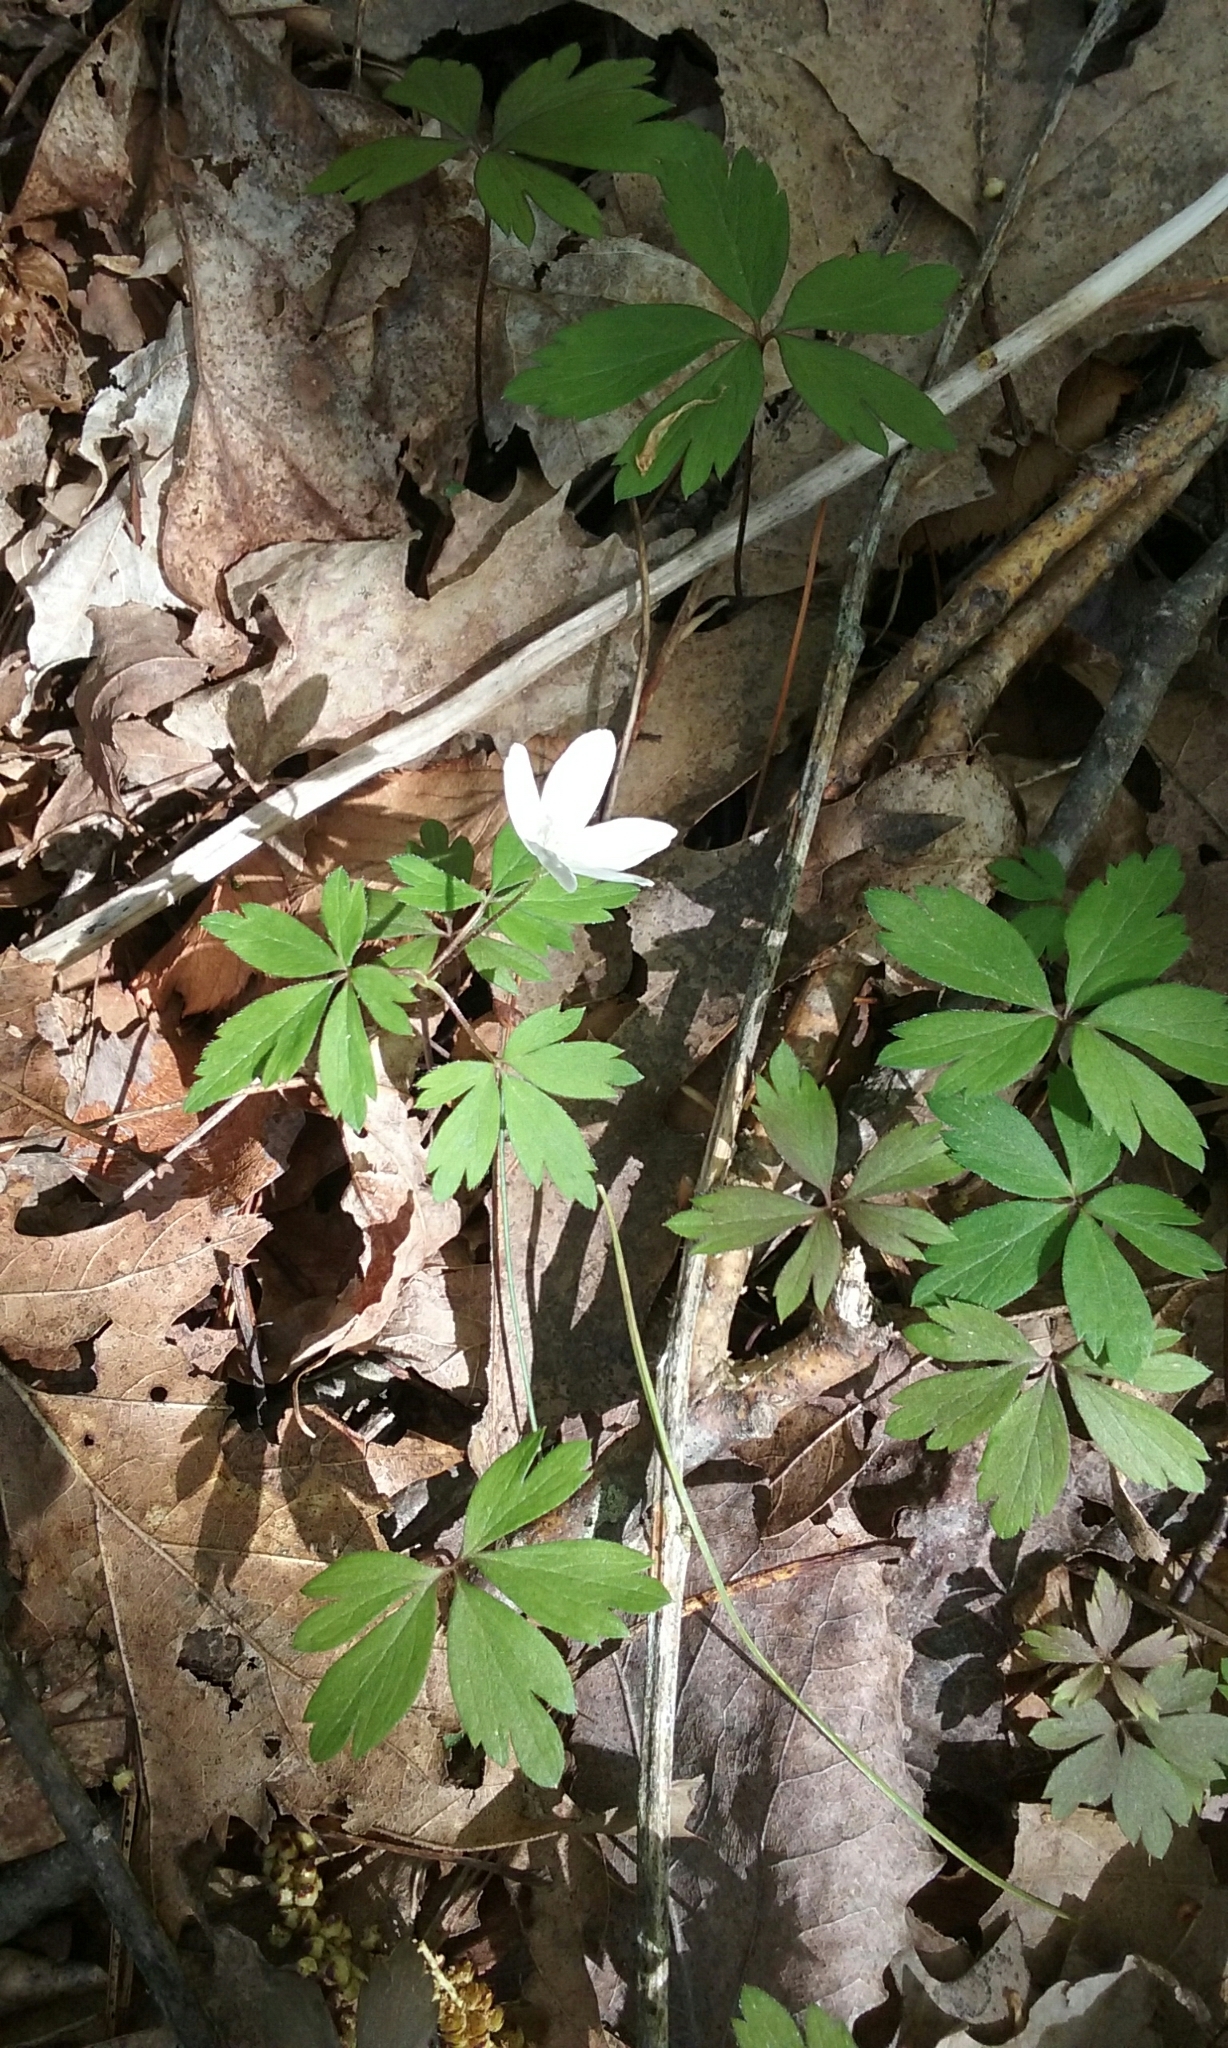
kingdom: Plantae
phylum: Tracheophyta
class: Magnoliopsida
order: Ranunculales
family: Ranunculaceae
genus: Anemone
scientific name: Anemone quinquefolia
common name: Wood anemone
